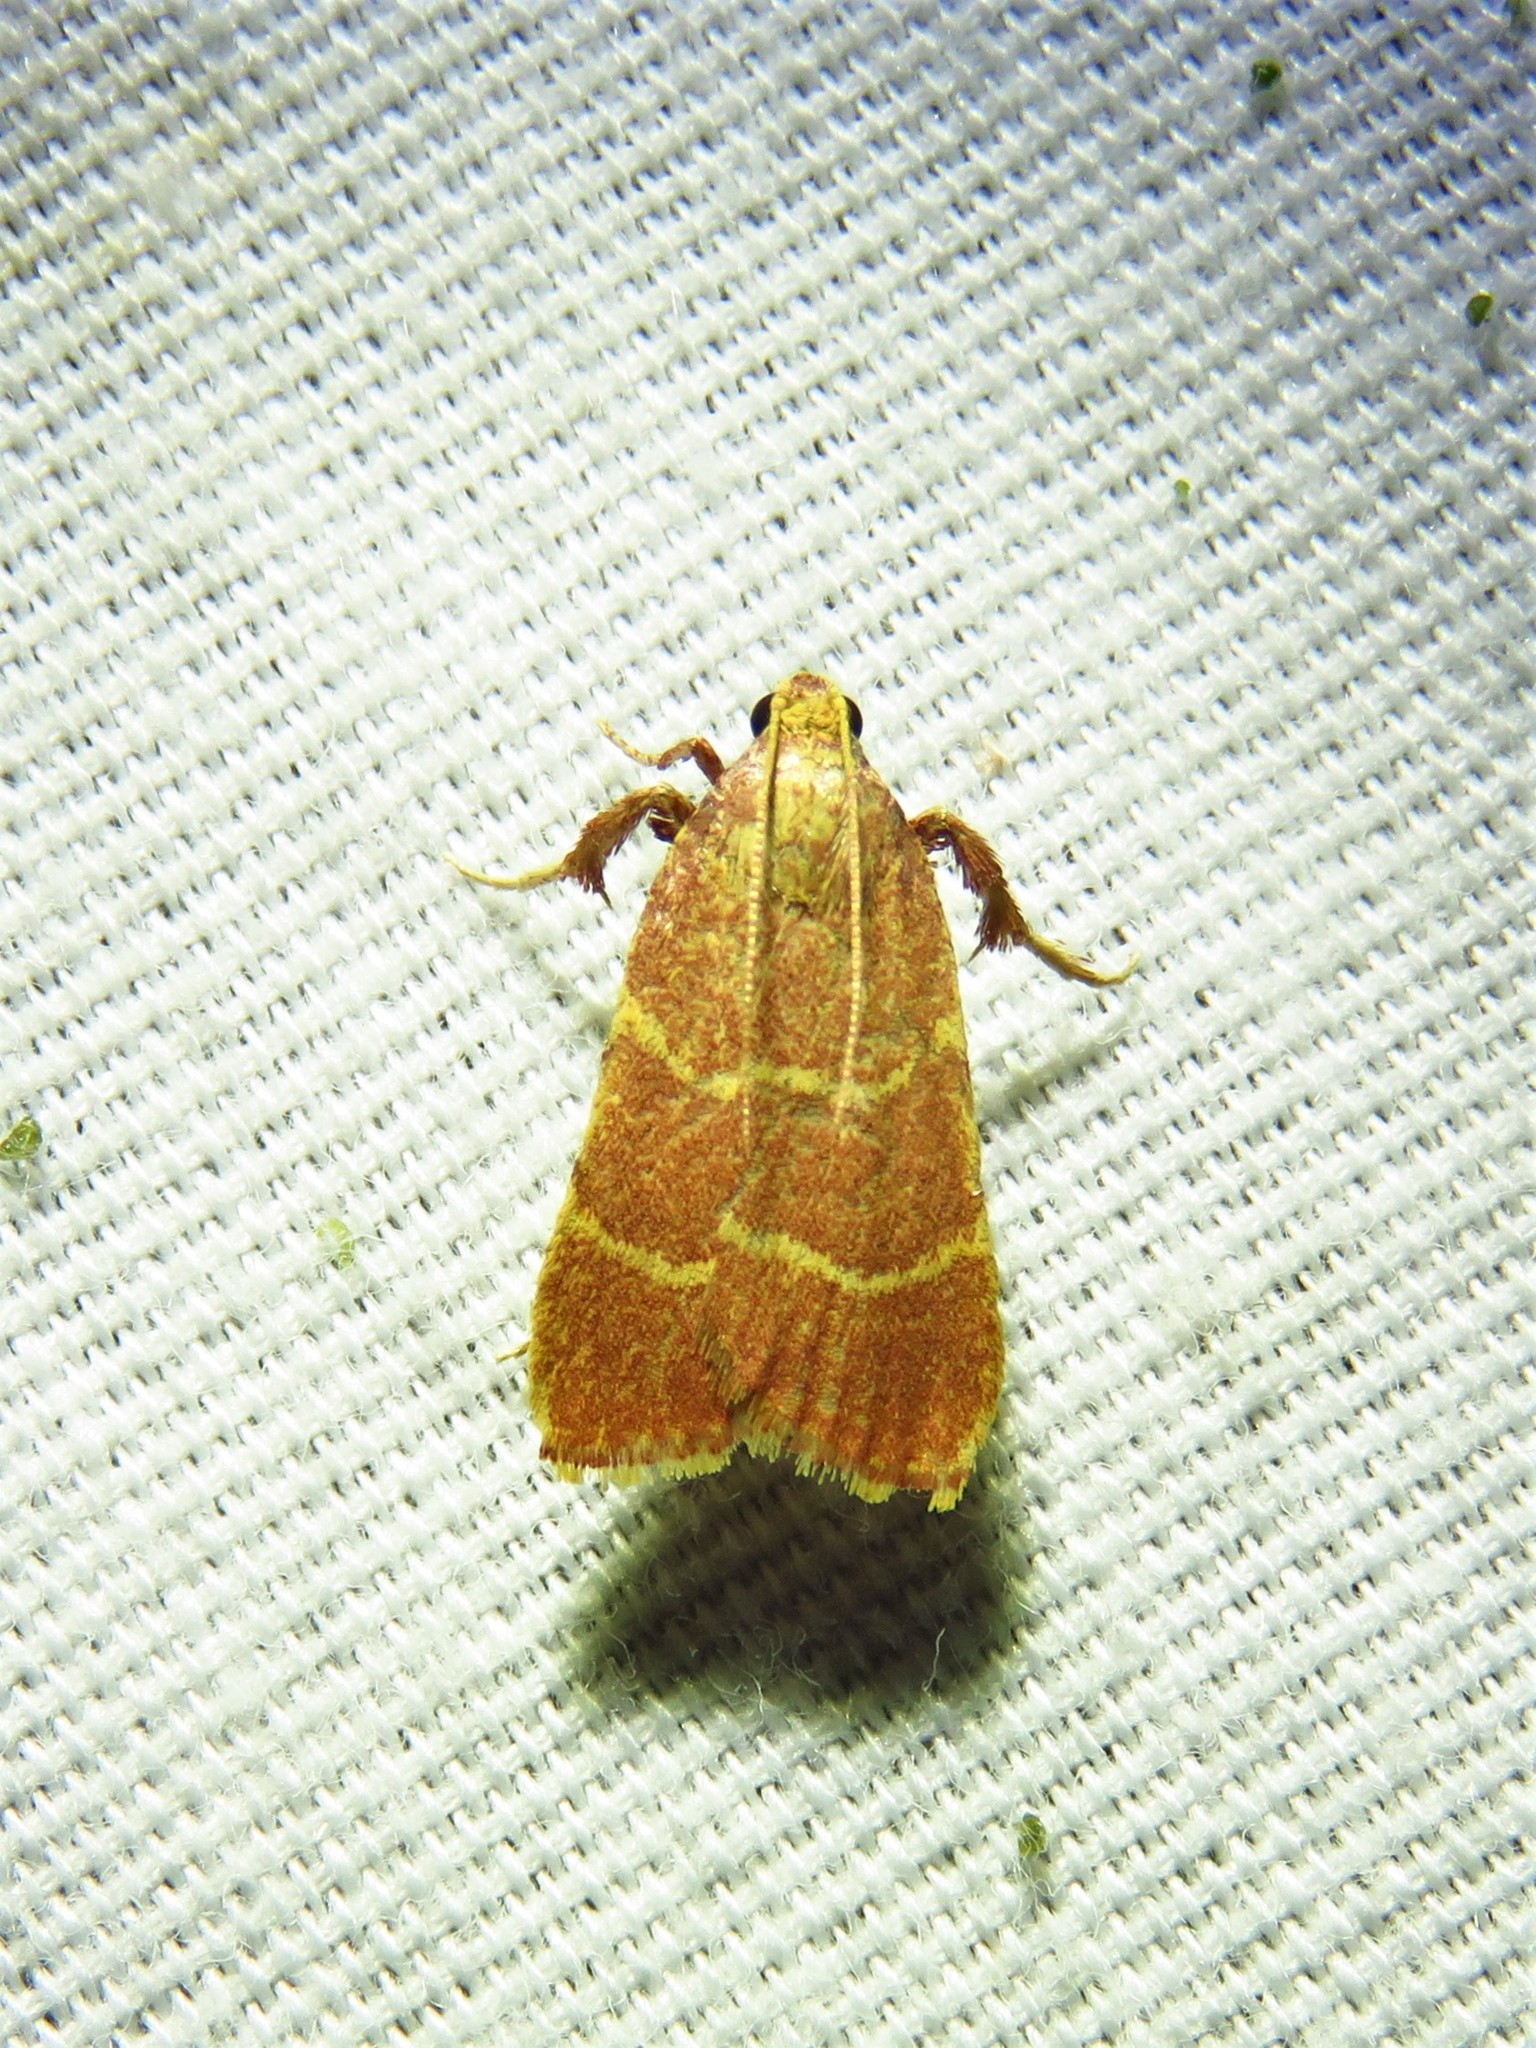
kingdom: Animalia
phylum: Arthropoda
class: Insecta
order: Lepidoptera
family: Pyralidae
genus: Parachma
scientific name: Parachma ochracealis
